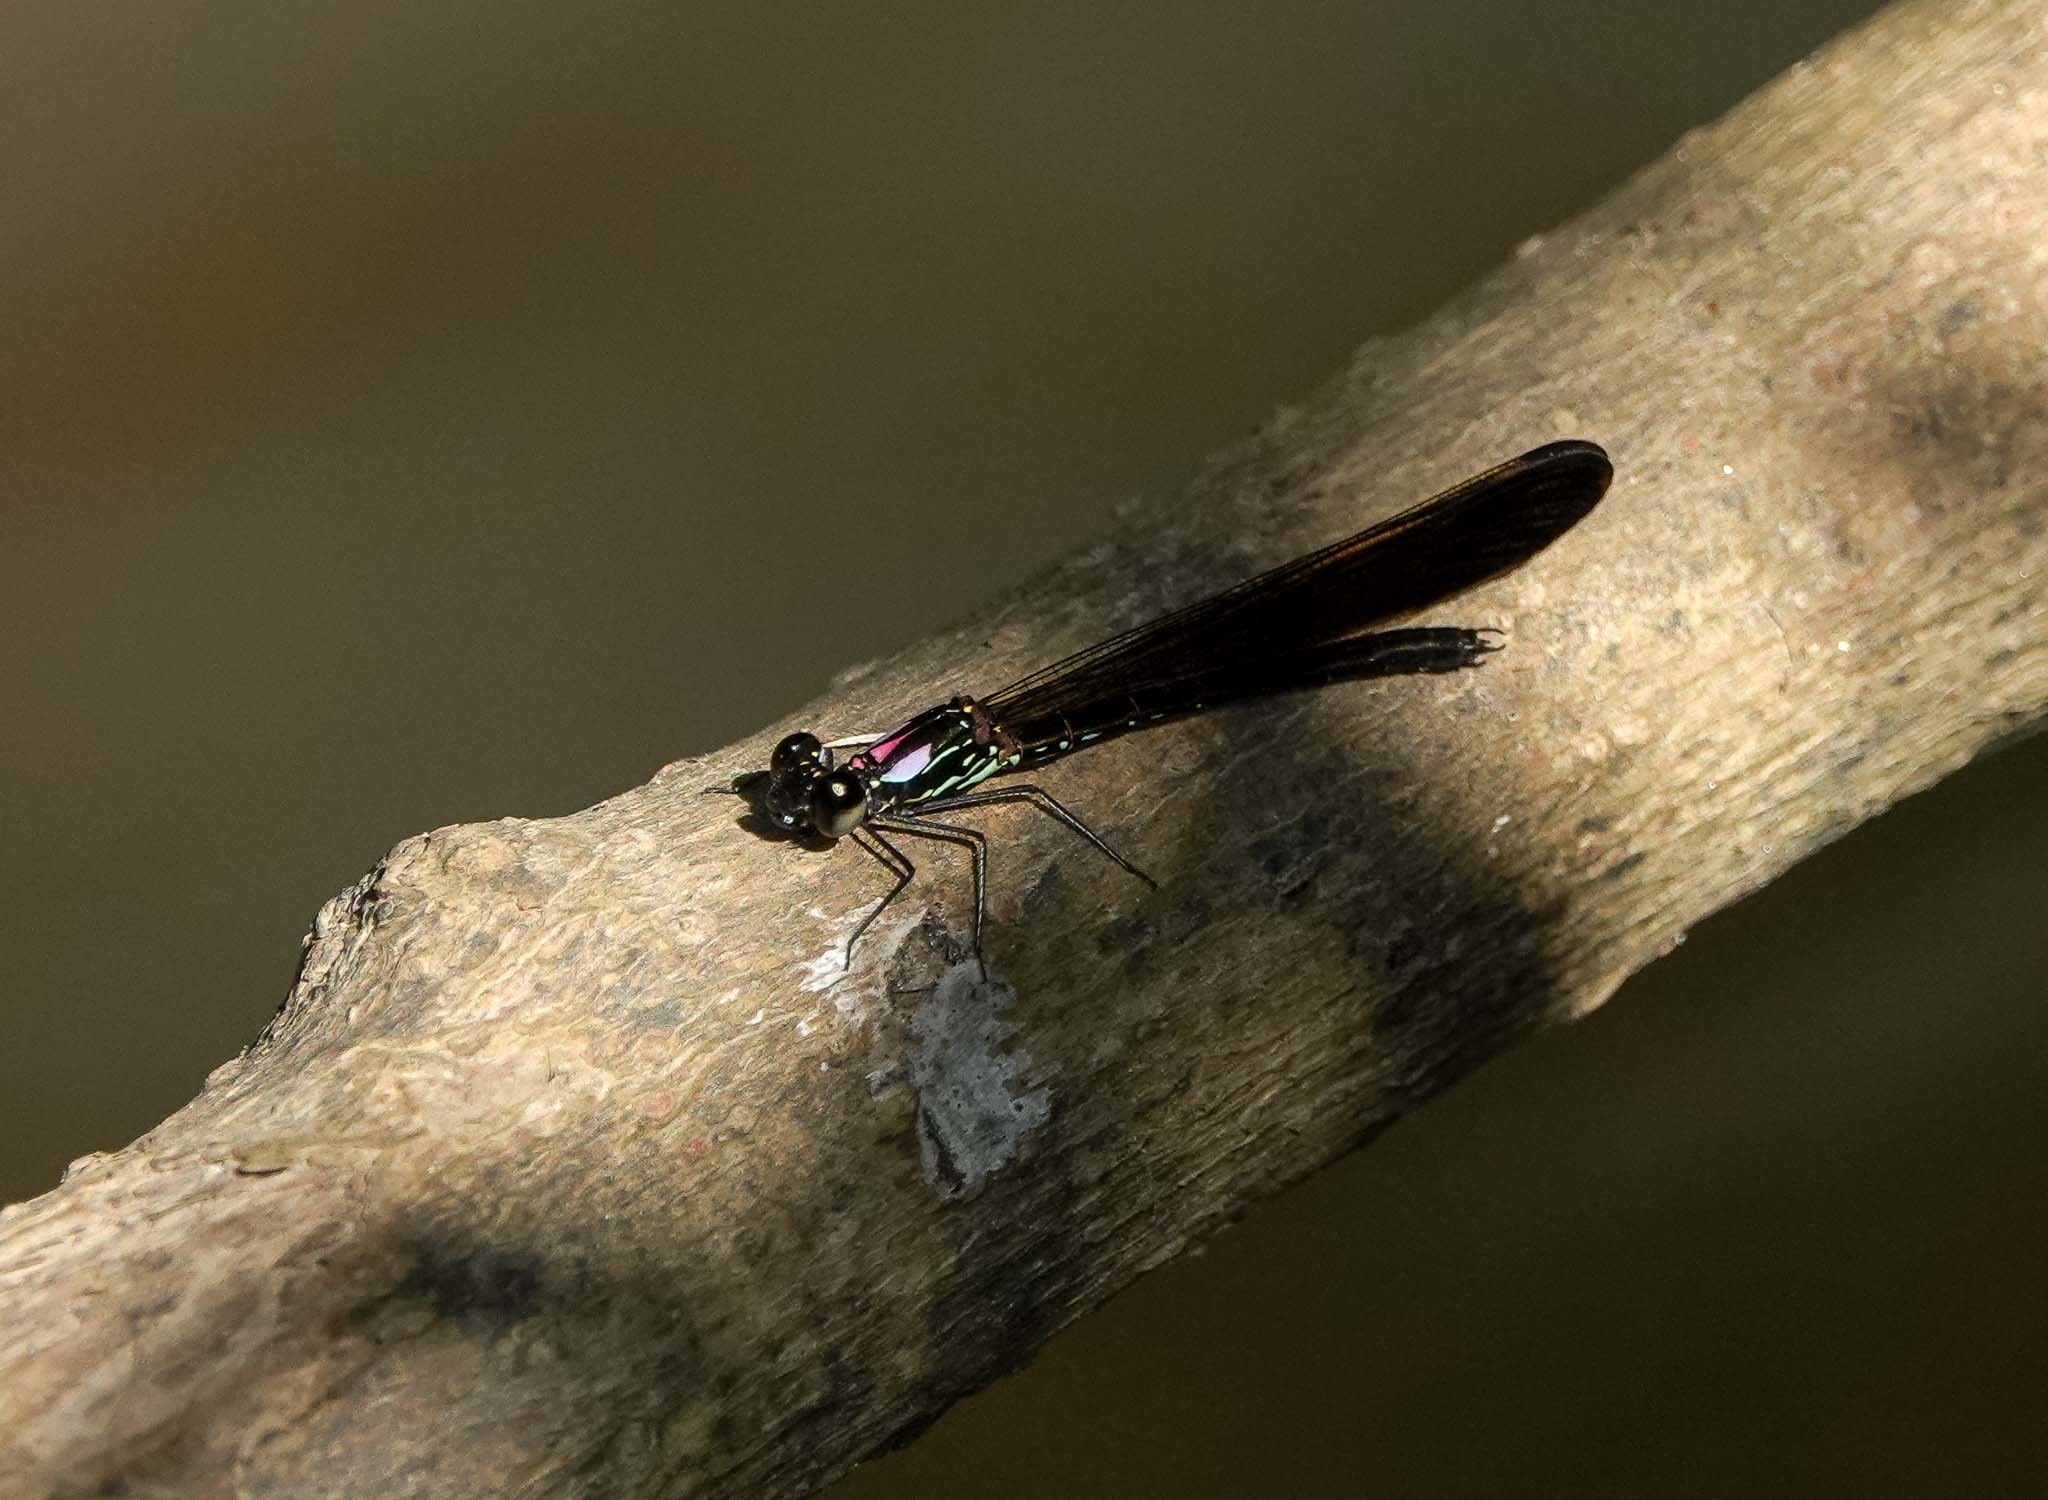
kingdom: Animalia
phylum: Arthropoda
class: Insecta
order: Odonata
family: Chlorocyphidae
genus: Heliocypha
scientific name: Heliocypha perforata
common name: Common blue jewel
